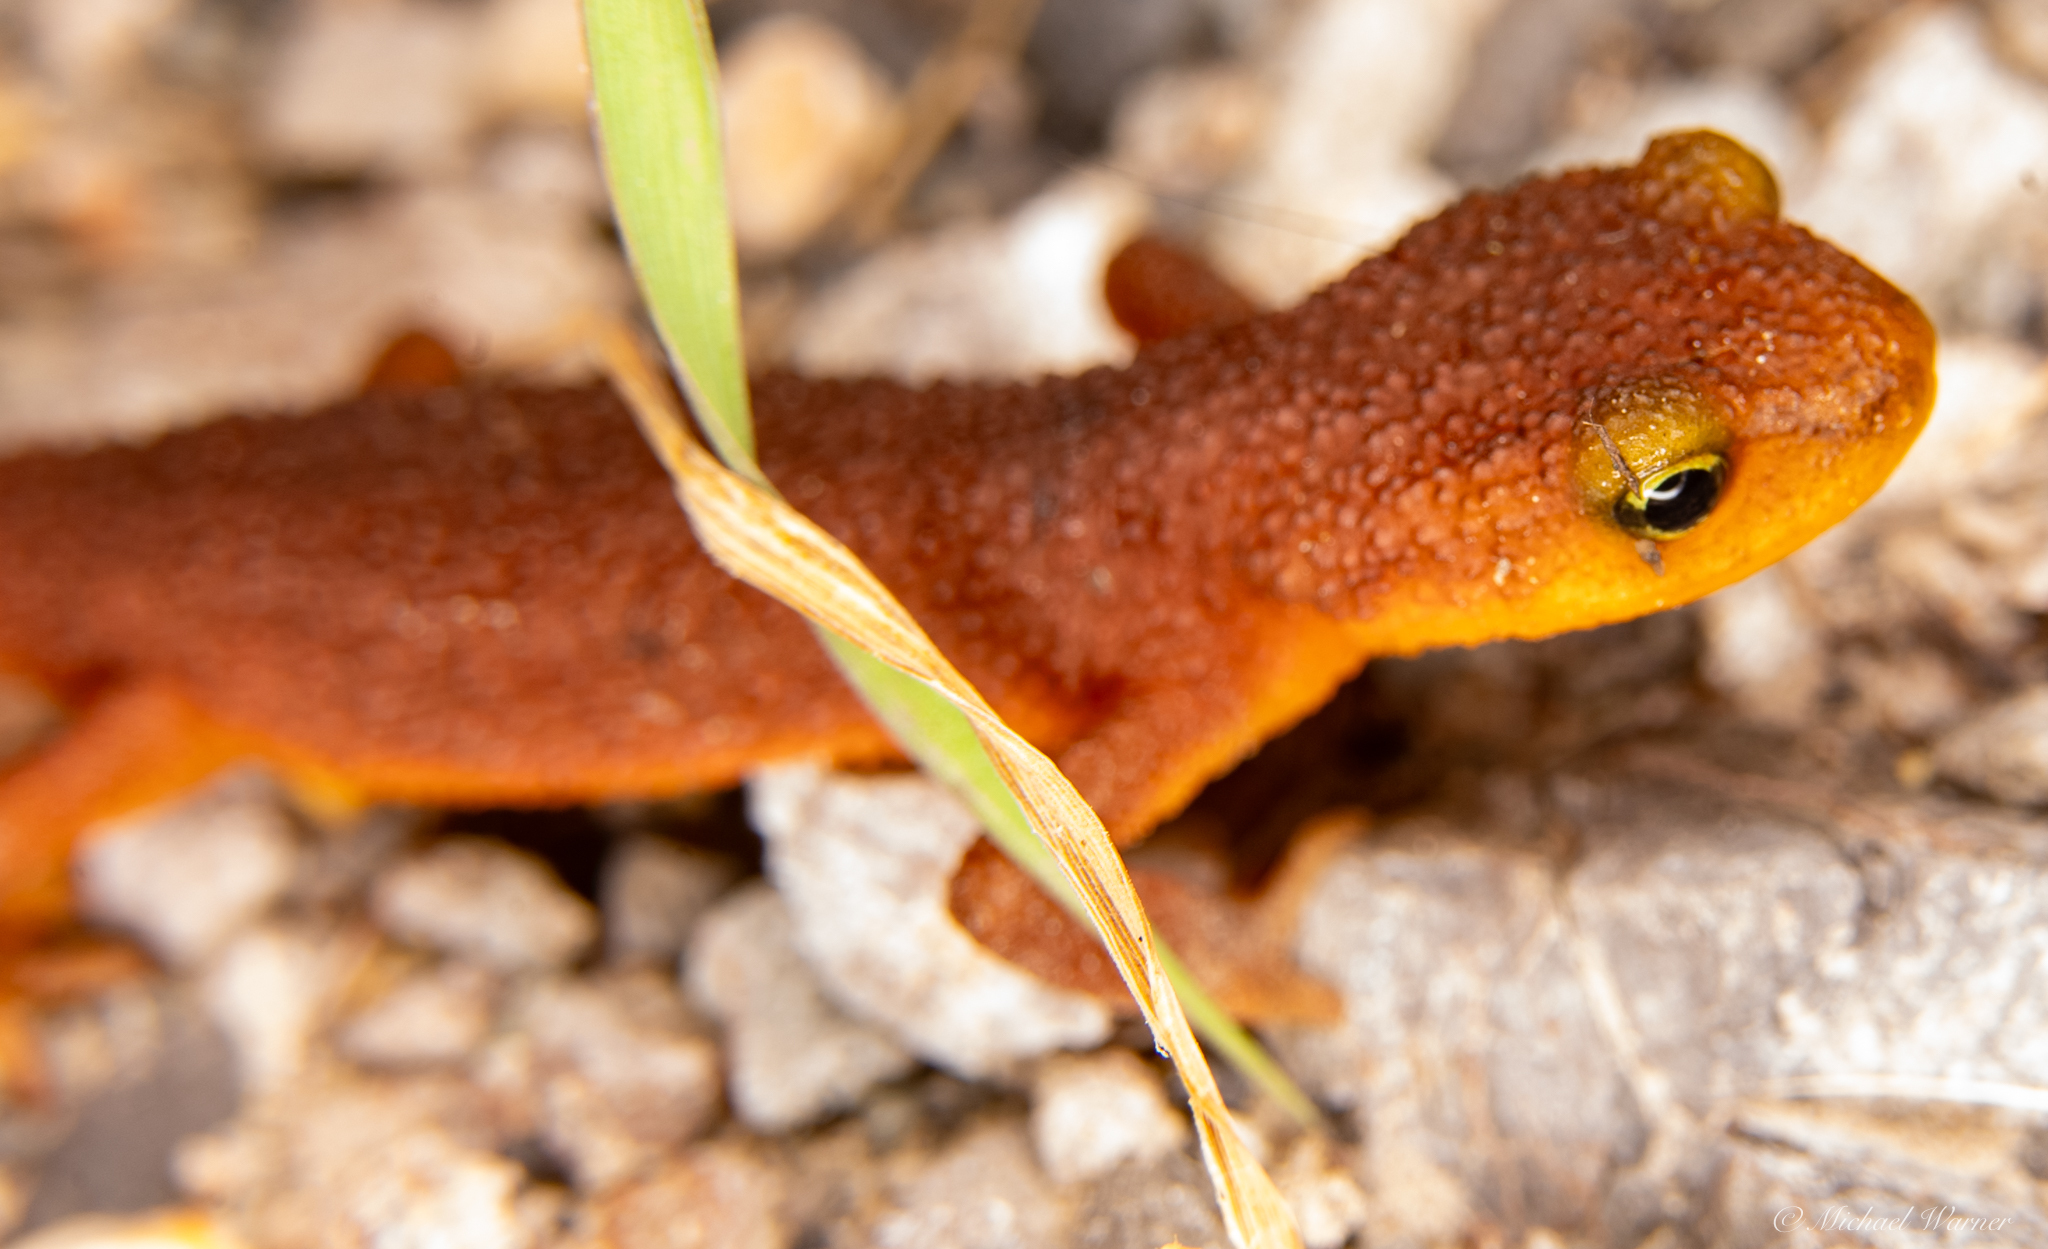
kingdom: Animalia
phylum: Chordata
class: Amphibia
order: Caudata
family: Salamandridae
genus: Taricha
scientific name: Taricha torosa
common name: California newt
